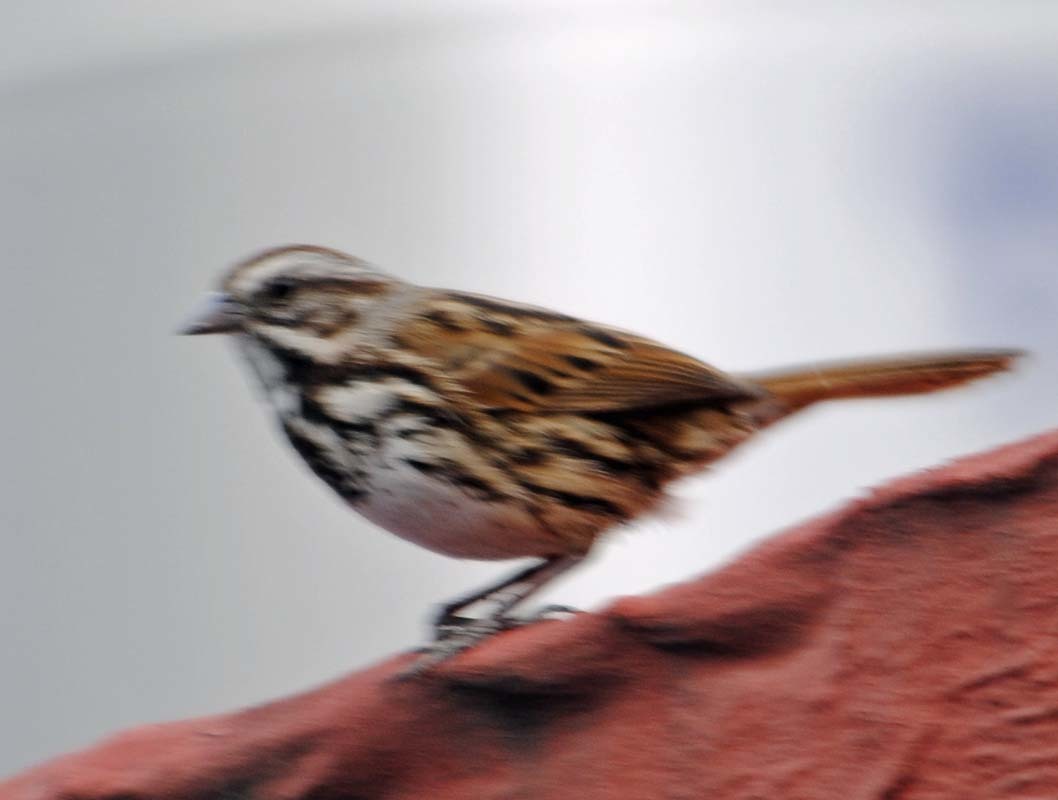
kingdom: Animalia
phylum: Chordata
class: Aves
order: Passeriformes
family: Passerellidae
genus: Melospiza
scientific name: Melospiza melodia
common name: Song sparrow
